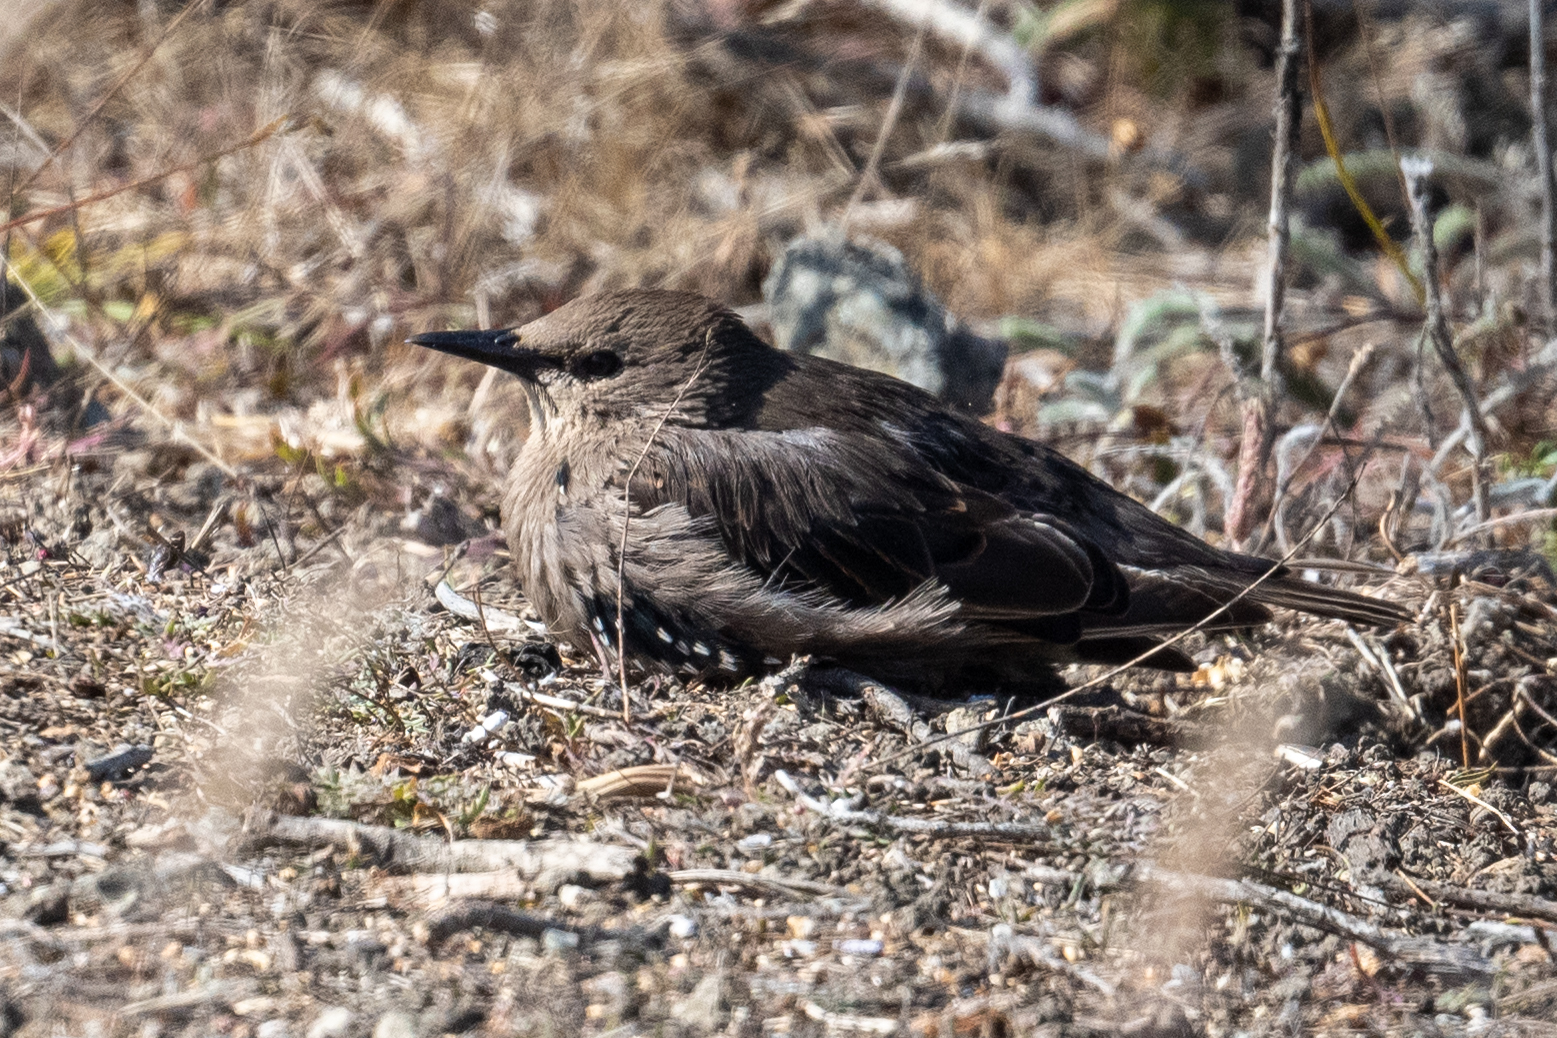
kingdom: Animalia
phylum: Chordata
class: Aves
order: Passeriformes
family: Sturnidae
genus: Sturnus
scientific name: Sturnus vulgaris
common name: Common starling
